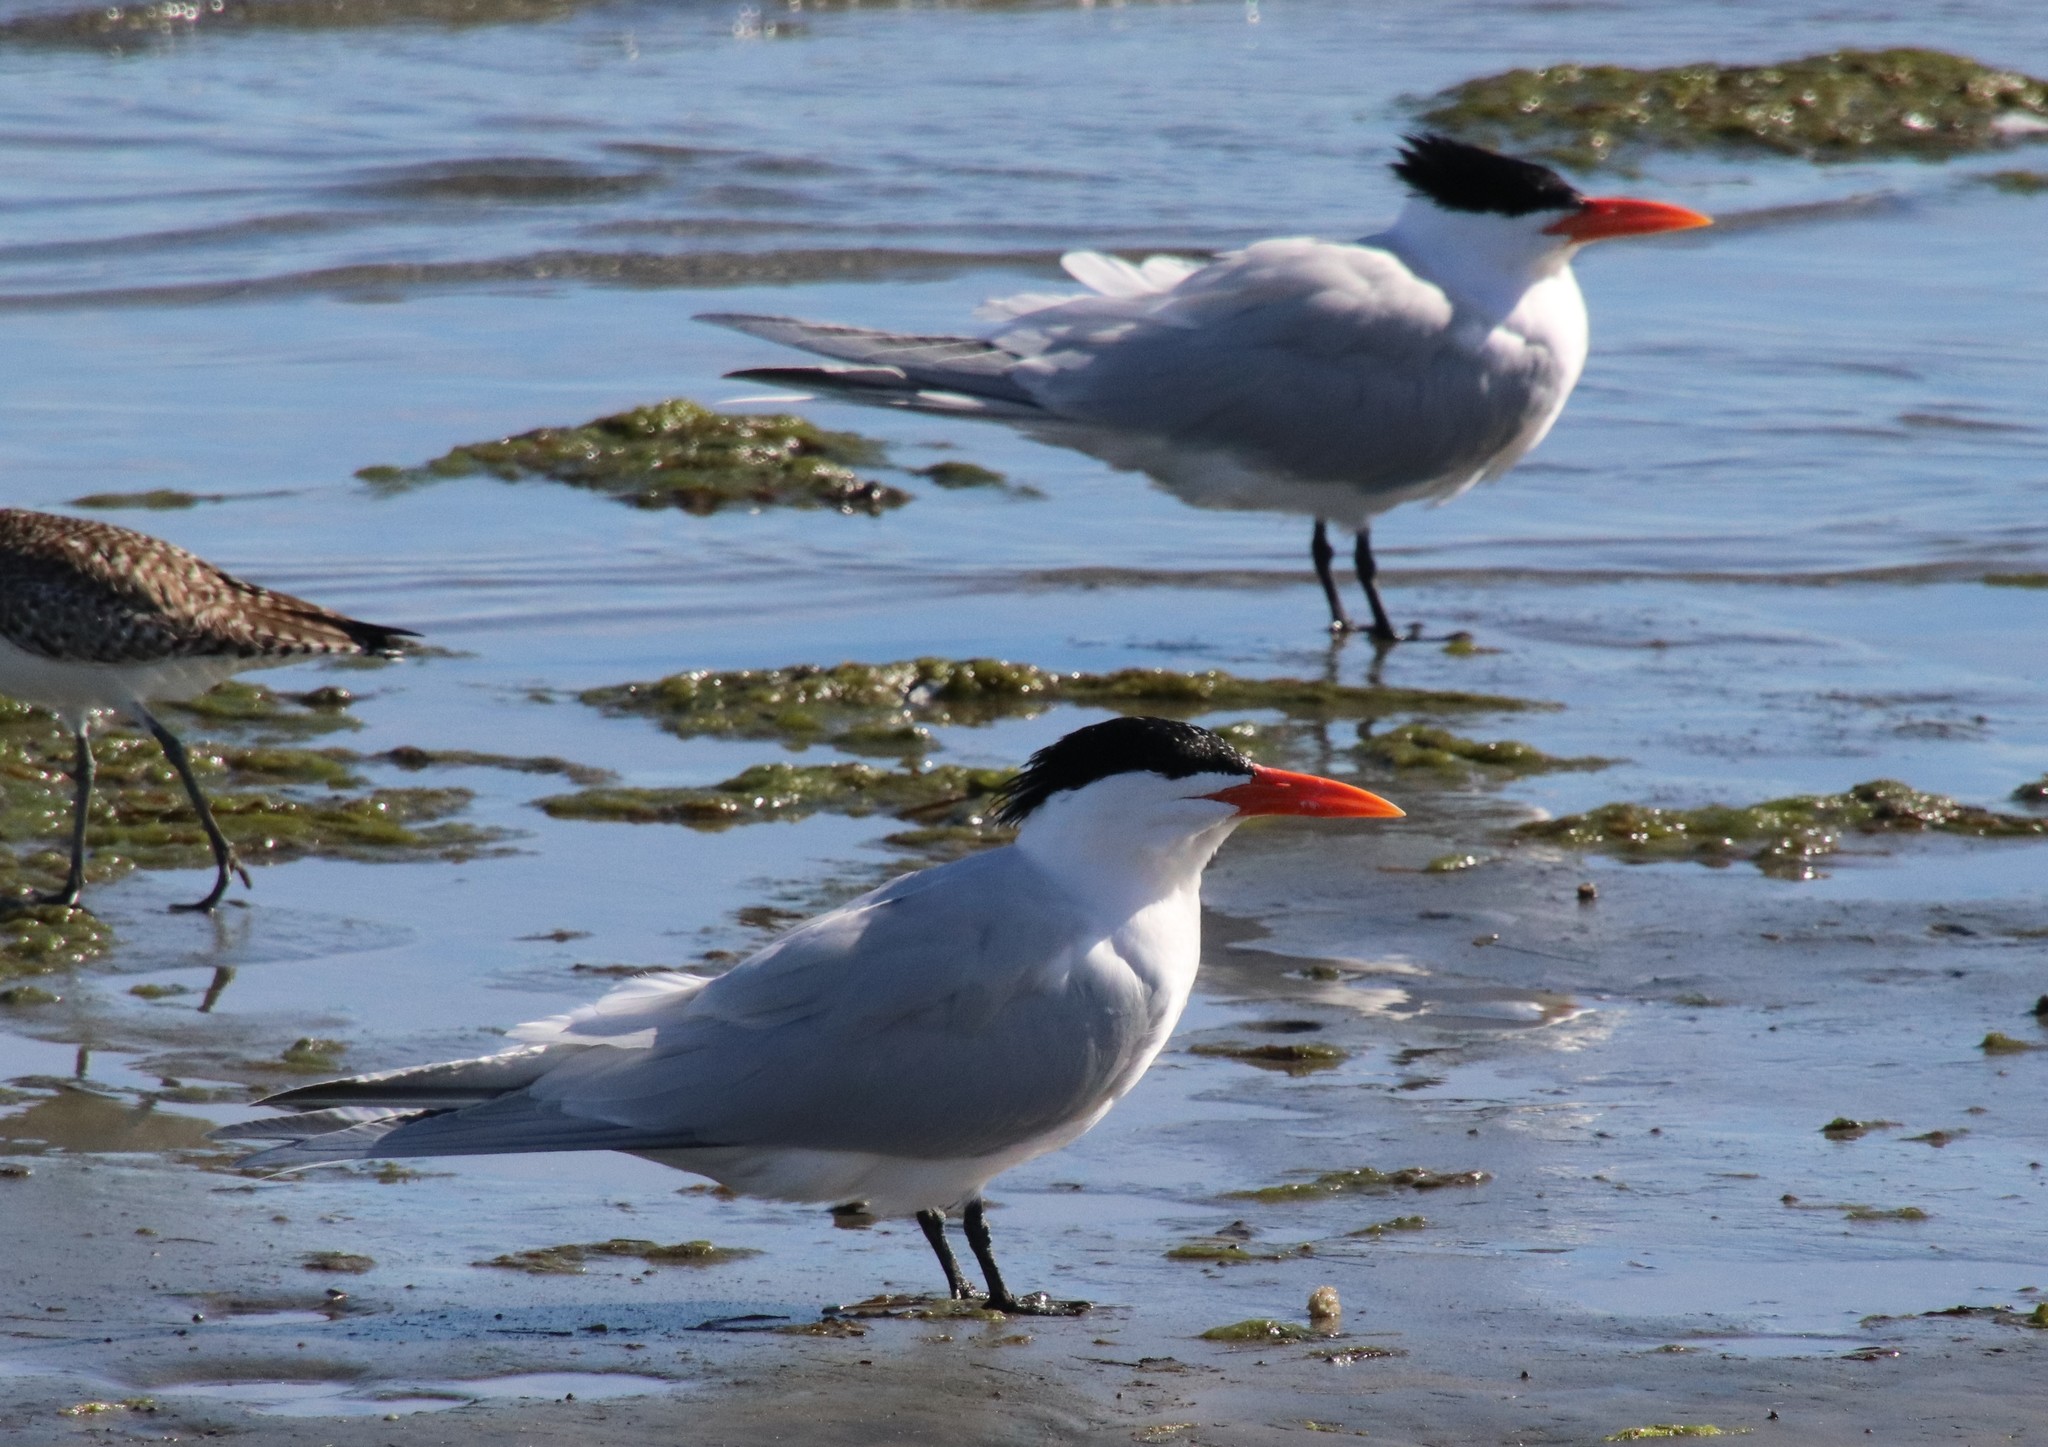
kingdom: Animalia
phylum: Chordata
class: Aves
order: Charadriiformes
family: Laridae
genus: Thalasseus
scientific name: Thalasseus maximus
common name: Royal tern
